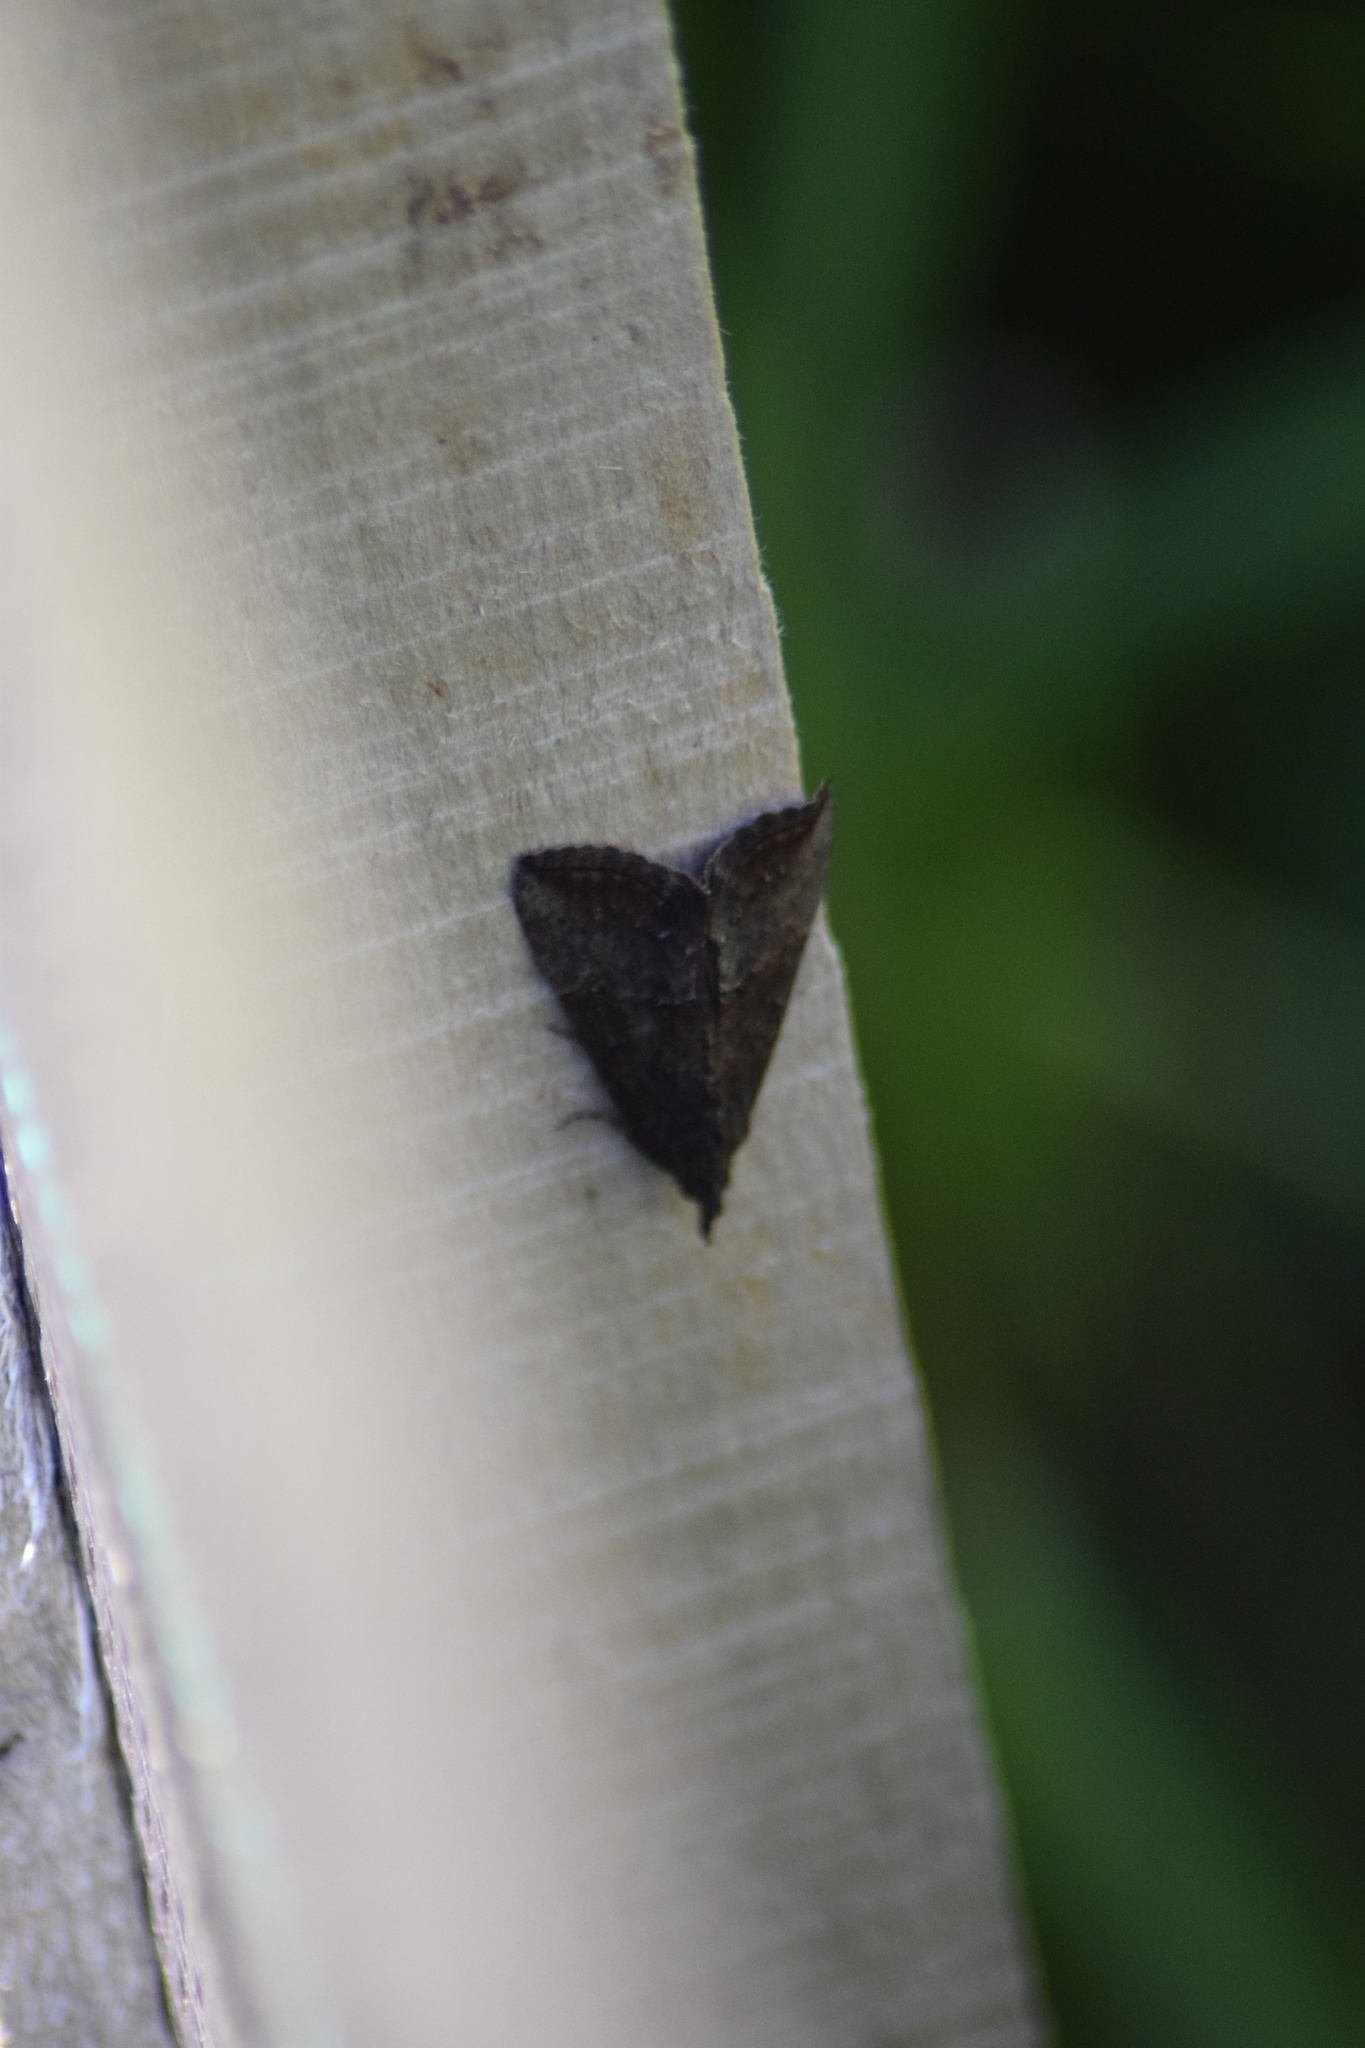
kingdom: Animalia
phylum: Arthropoda
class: Insecta
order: Lepidoptera
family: Erebidae
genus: Hypena
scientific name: Hypena scabra
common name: Green cloverworm
